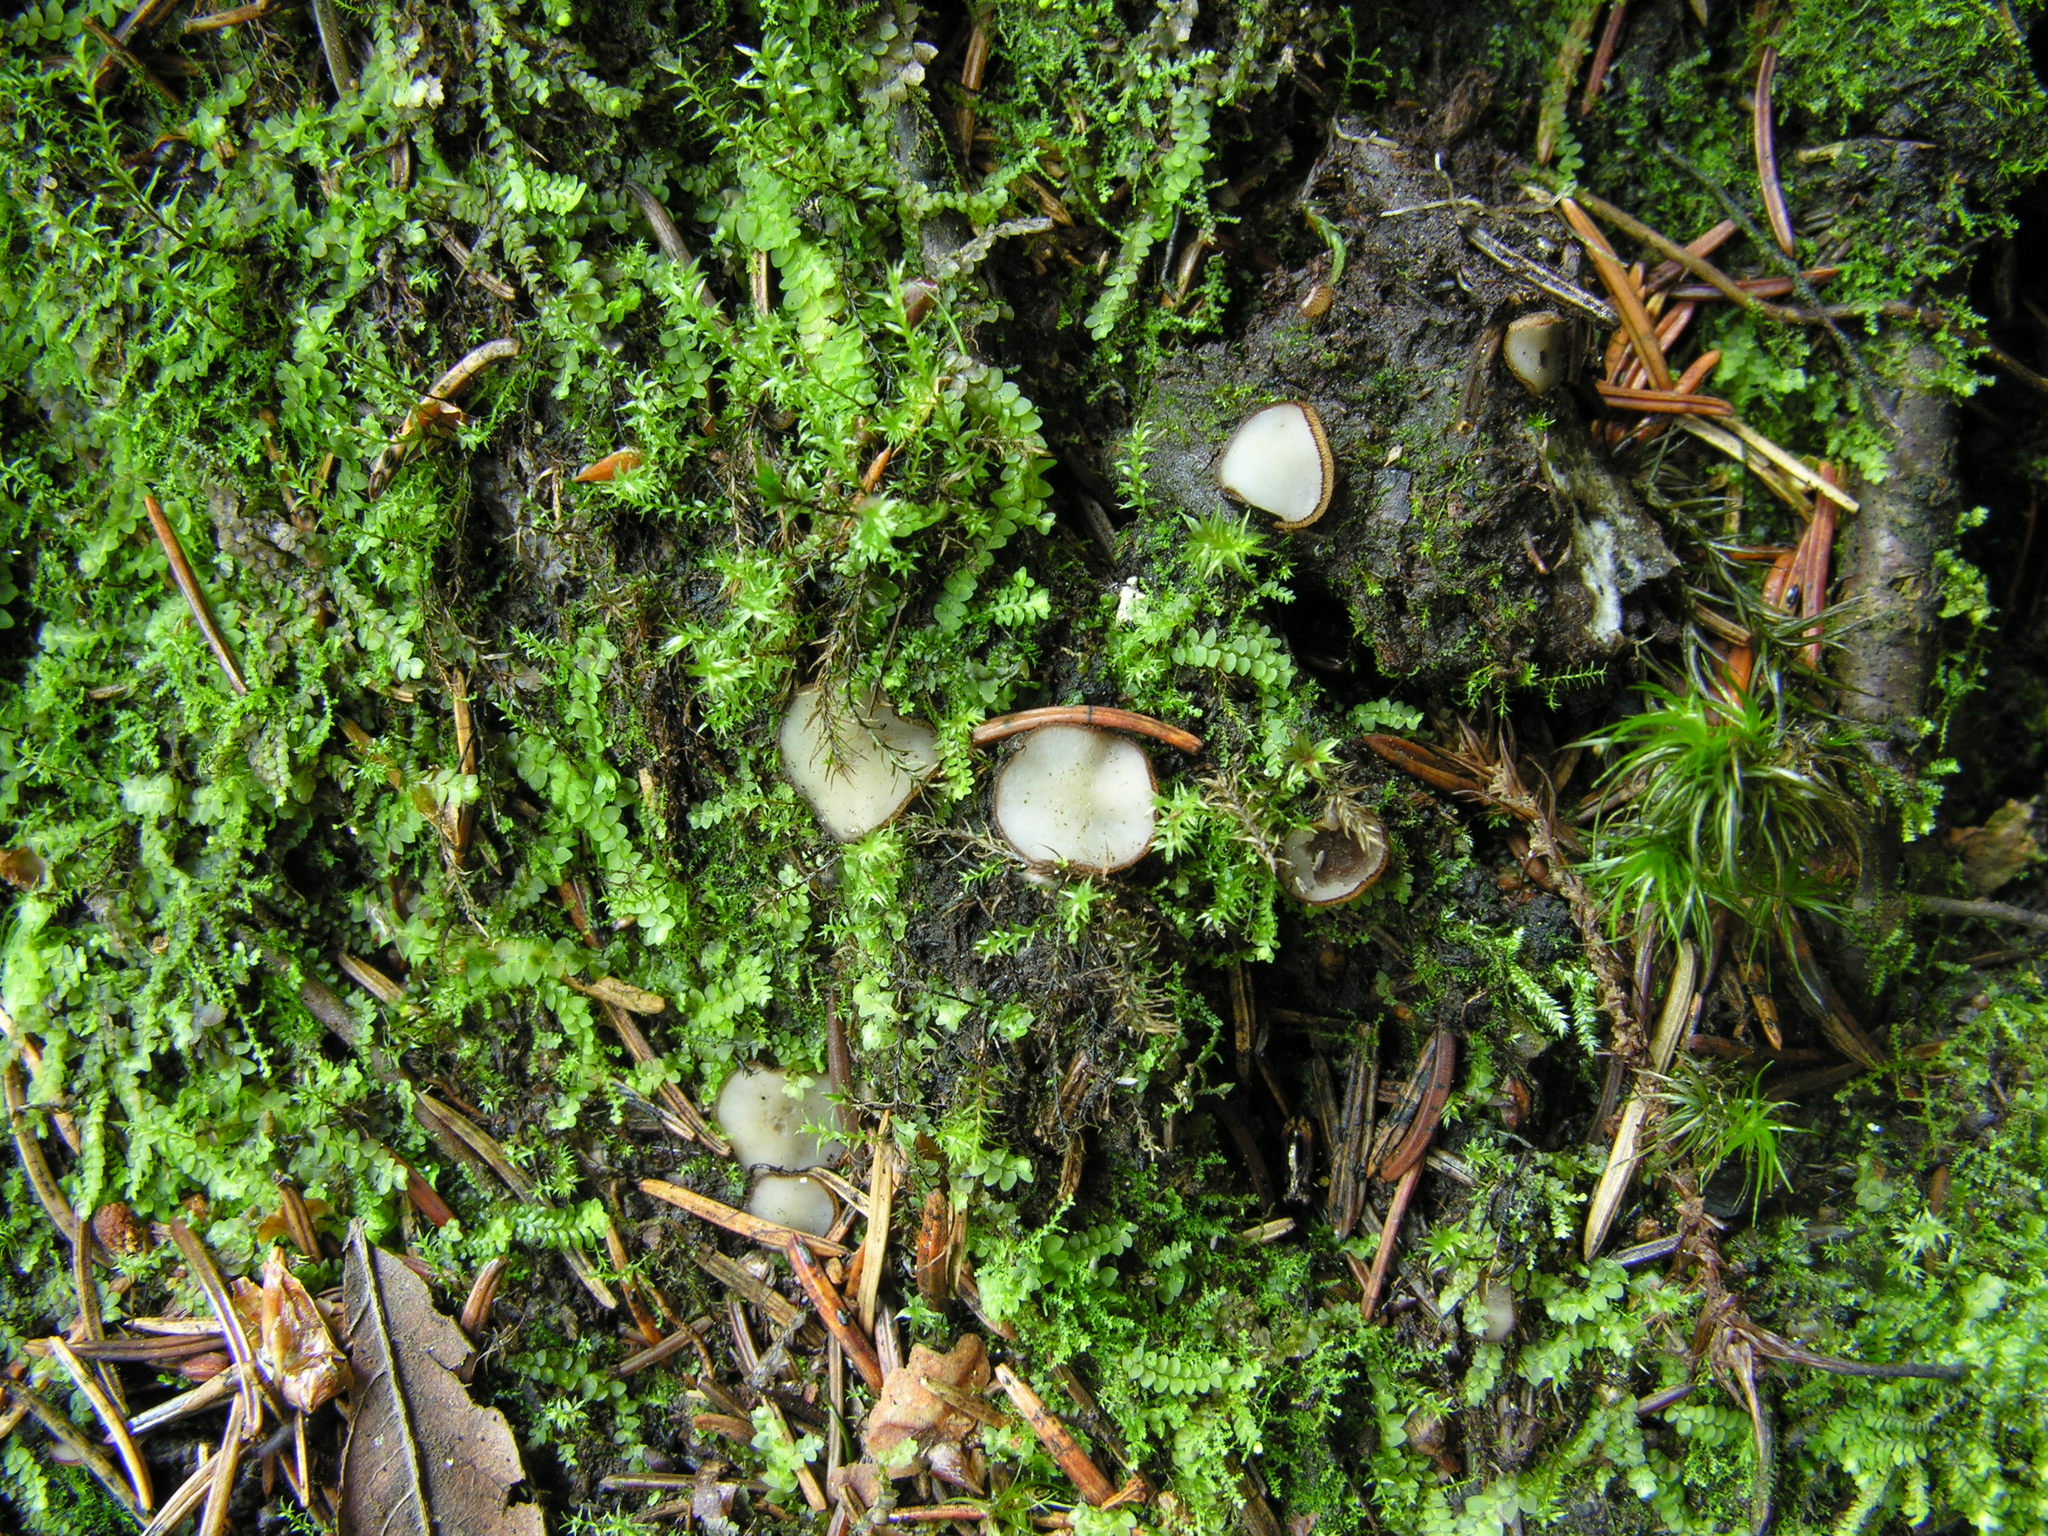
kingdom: Fungi
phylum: Ascomycota
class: Pezizomycetes
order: Pezizales
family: Pyronemataceae
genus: Trichophaea
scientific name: Trichophaea pseudogregaria
